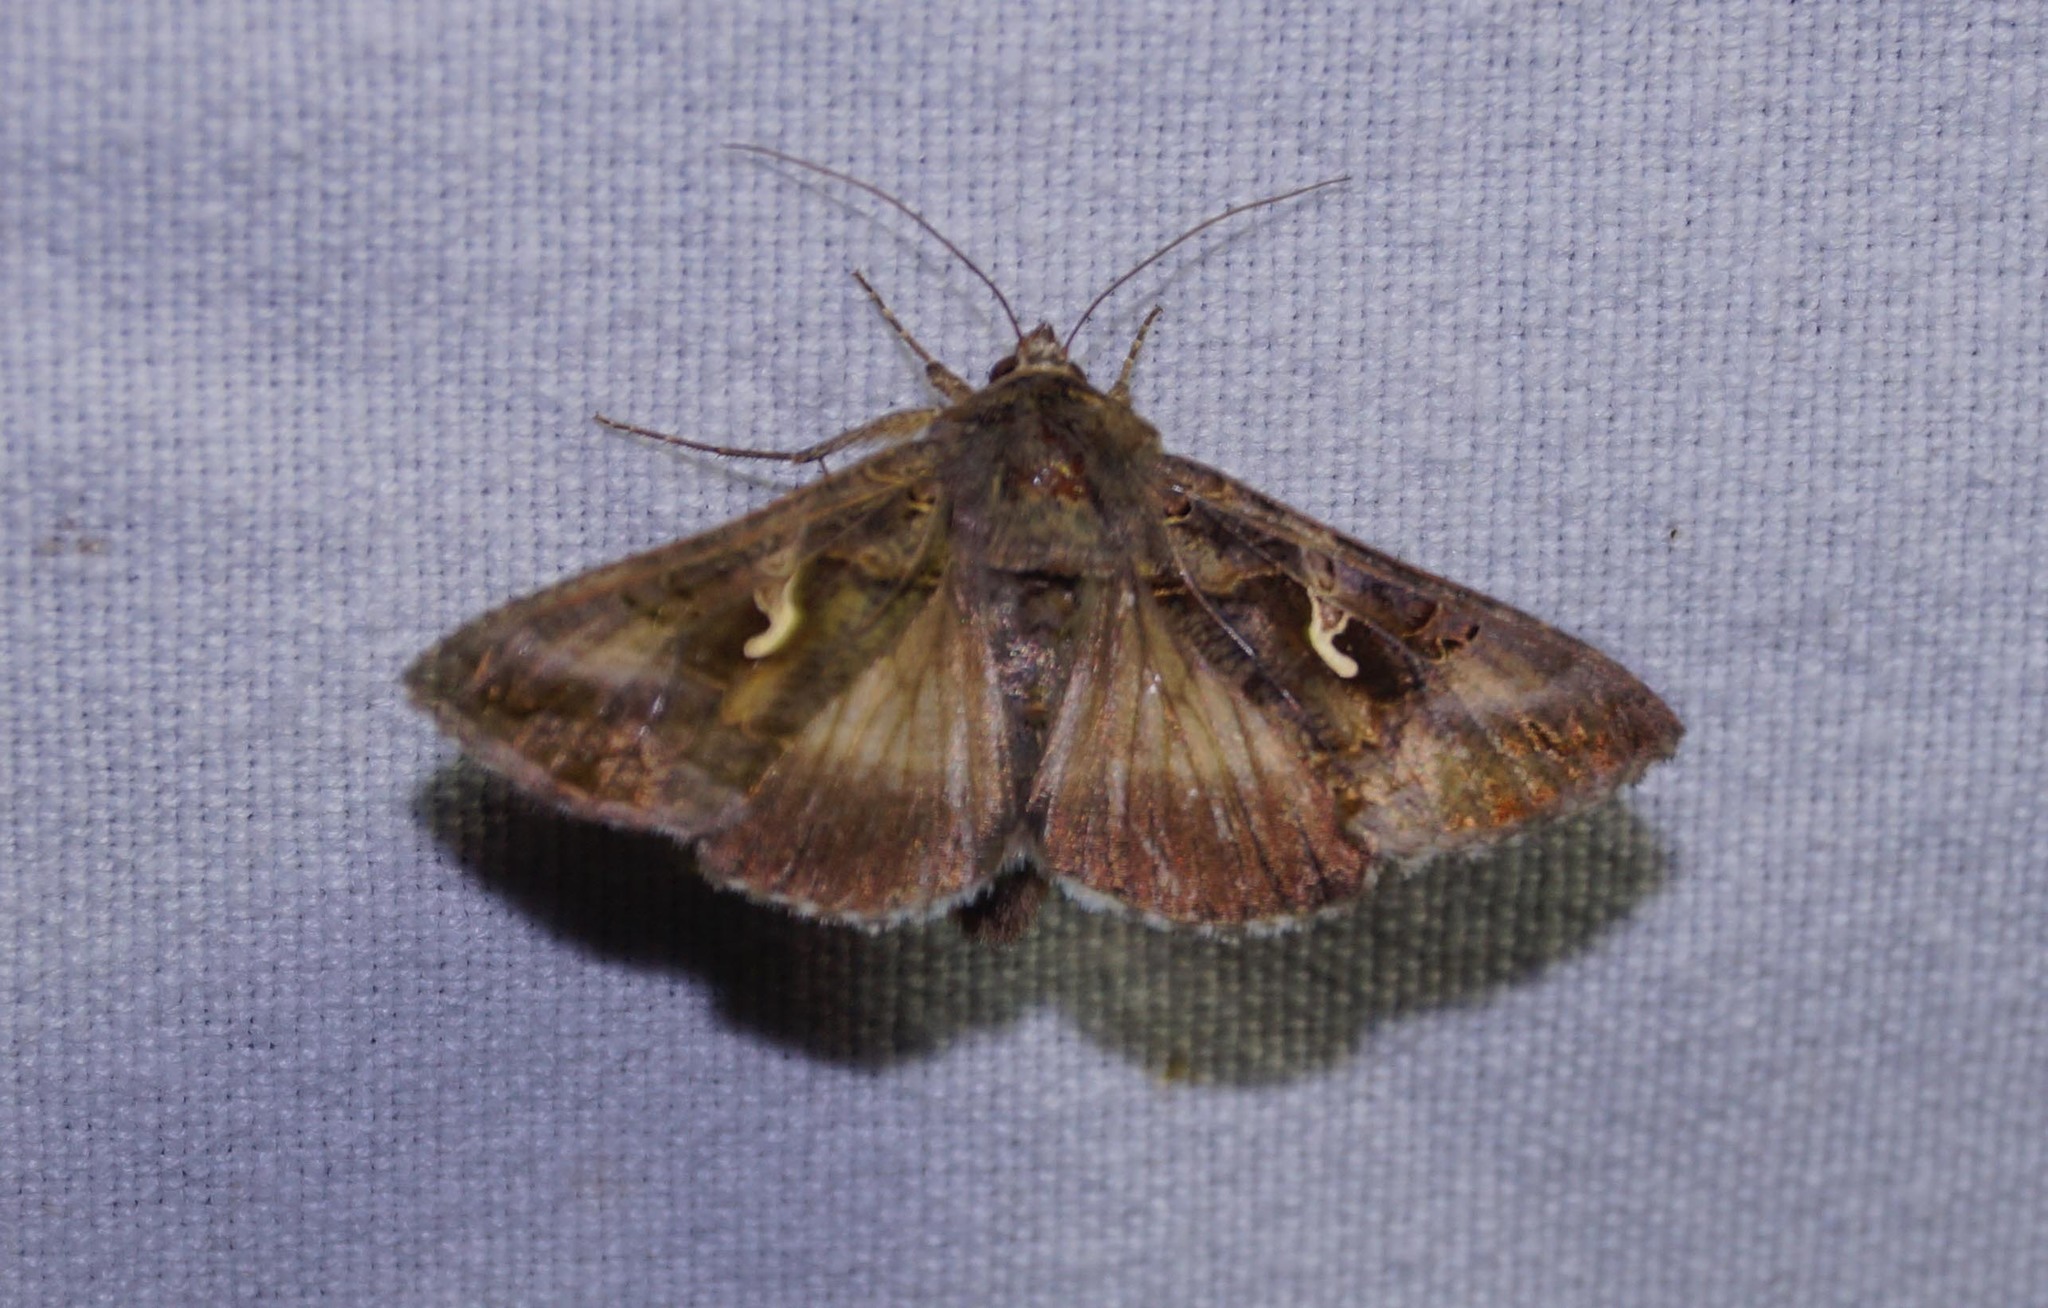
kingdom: Animalia
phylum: Arthropoda
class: Insecta
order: Lepidoptera
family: Noctuidae
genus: Autographa
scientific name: Autographa gamma
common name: Silver y
